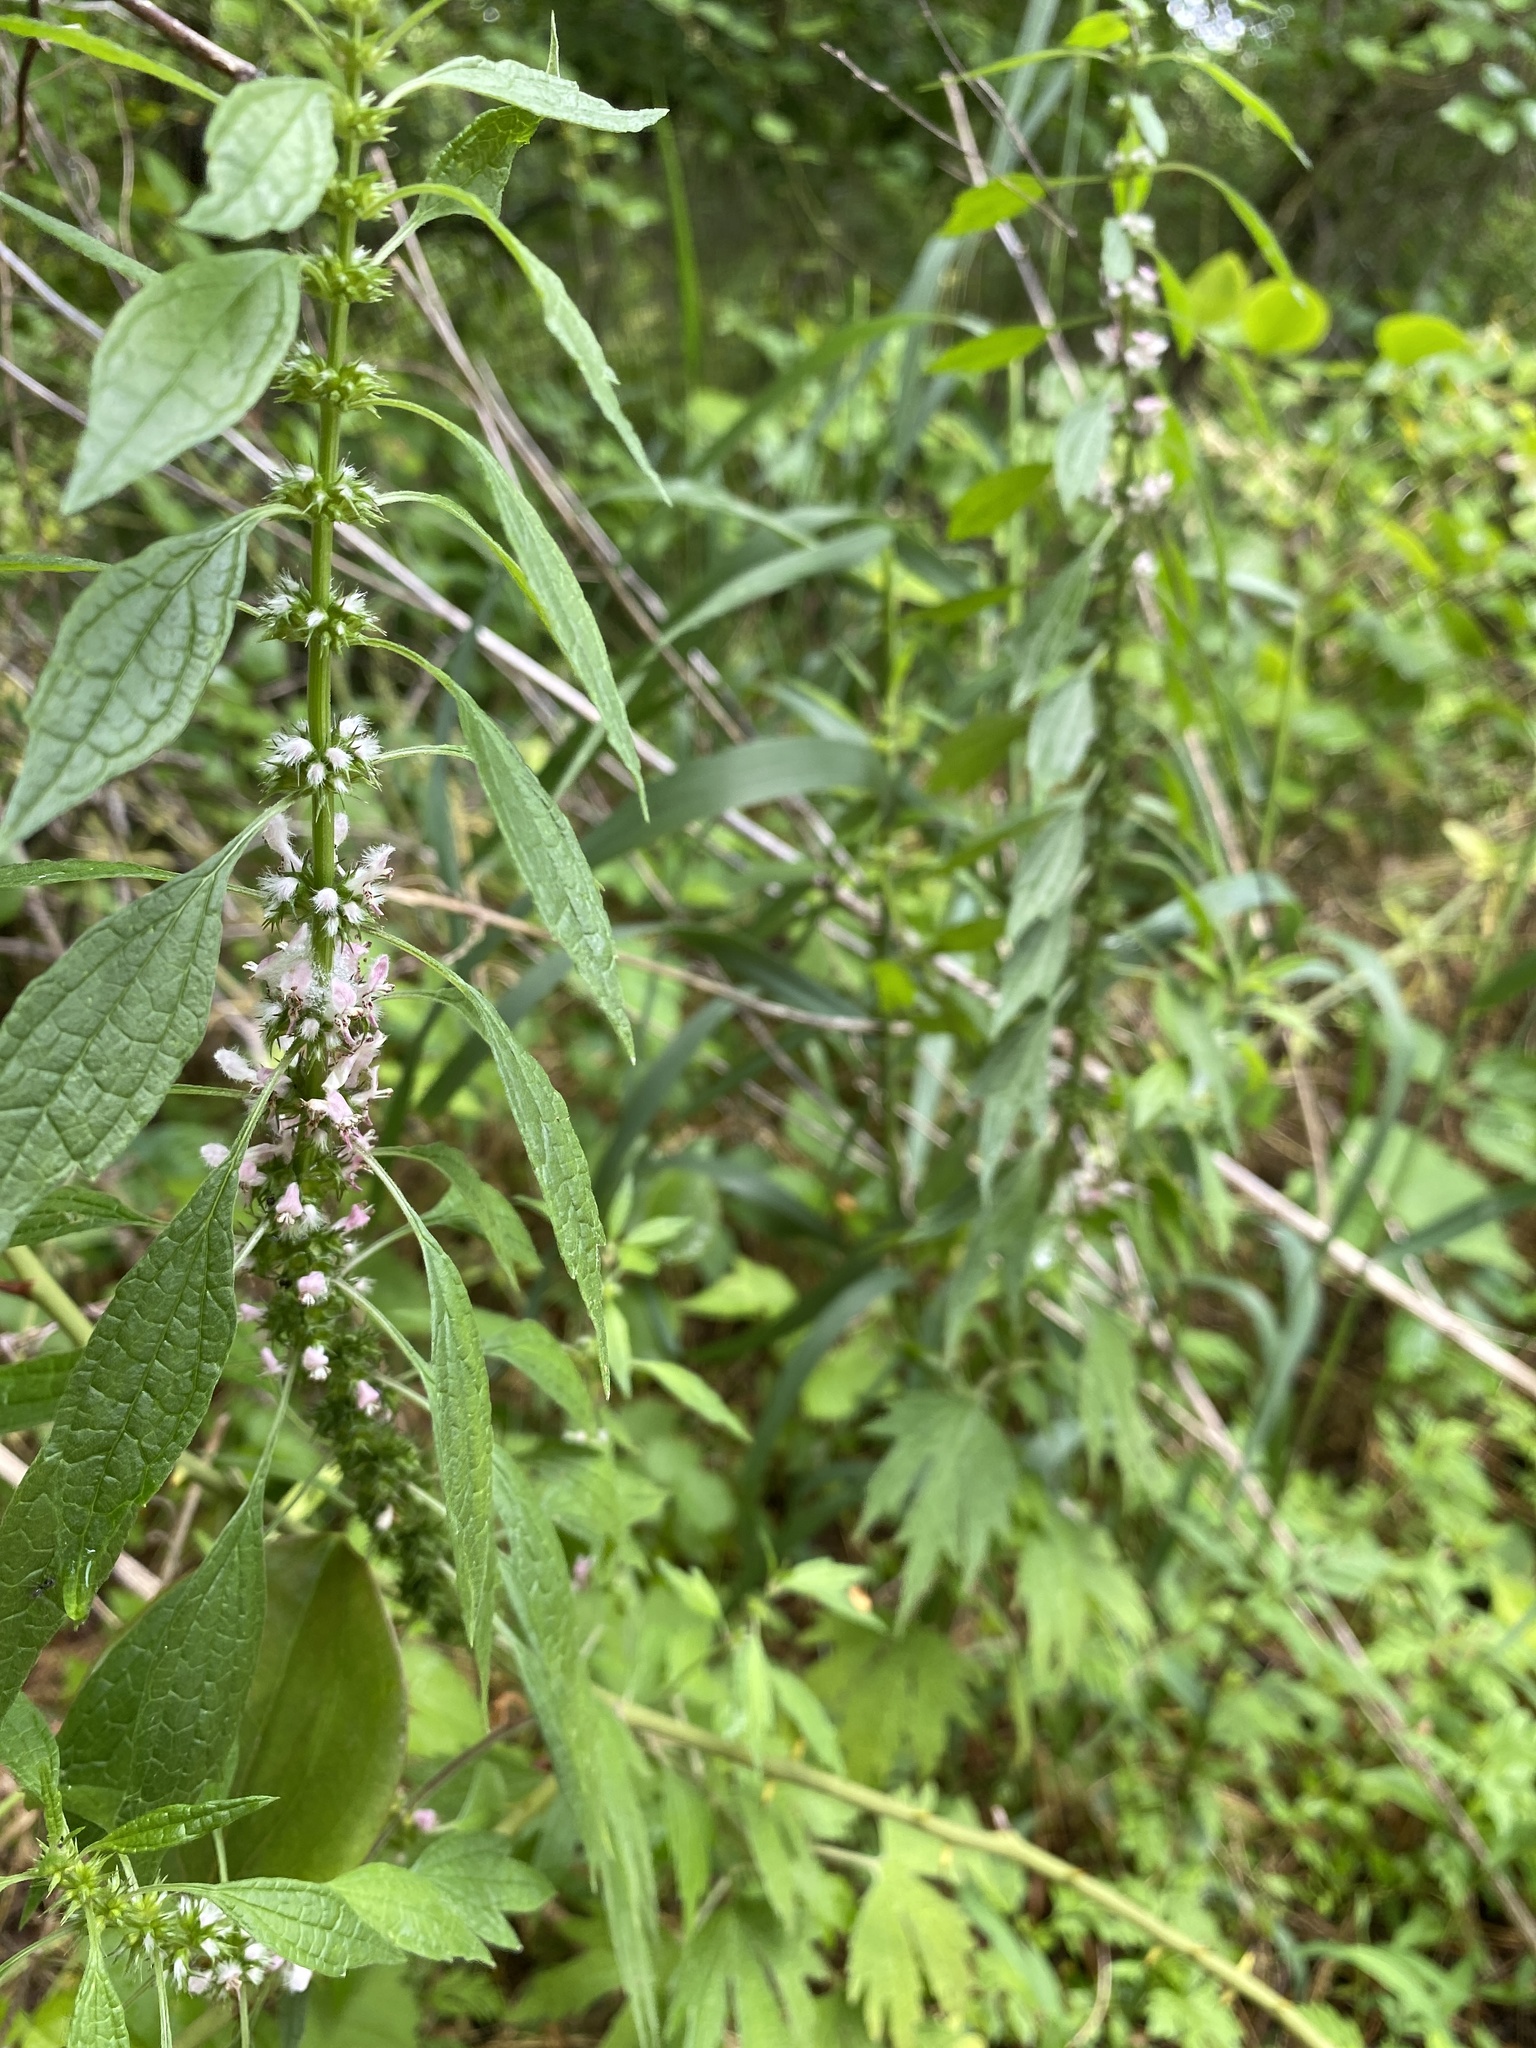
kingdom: Plantae
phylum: Tracheophyta
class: Magnoliopsida
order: Lamiales
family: Lamiaceae
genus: Leonurus
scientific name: Leonurus cardiaca
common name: Motherwort
